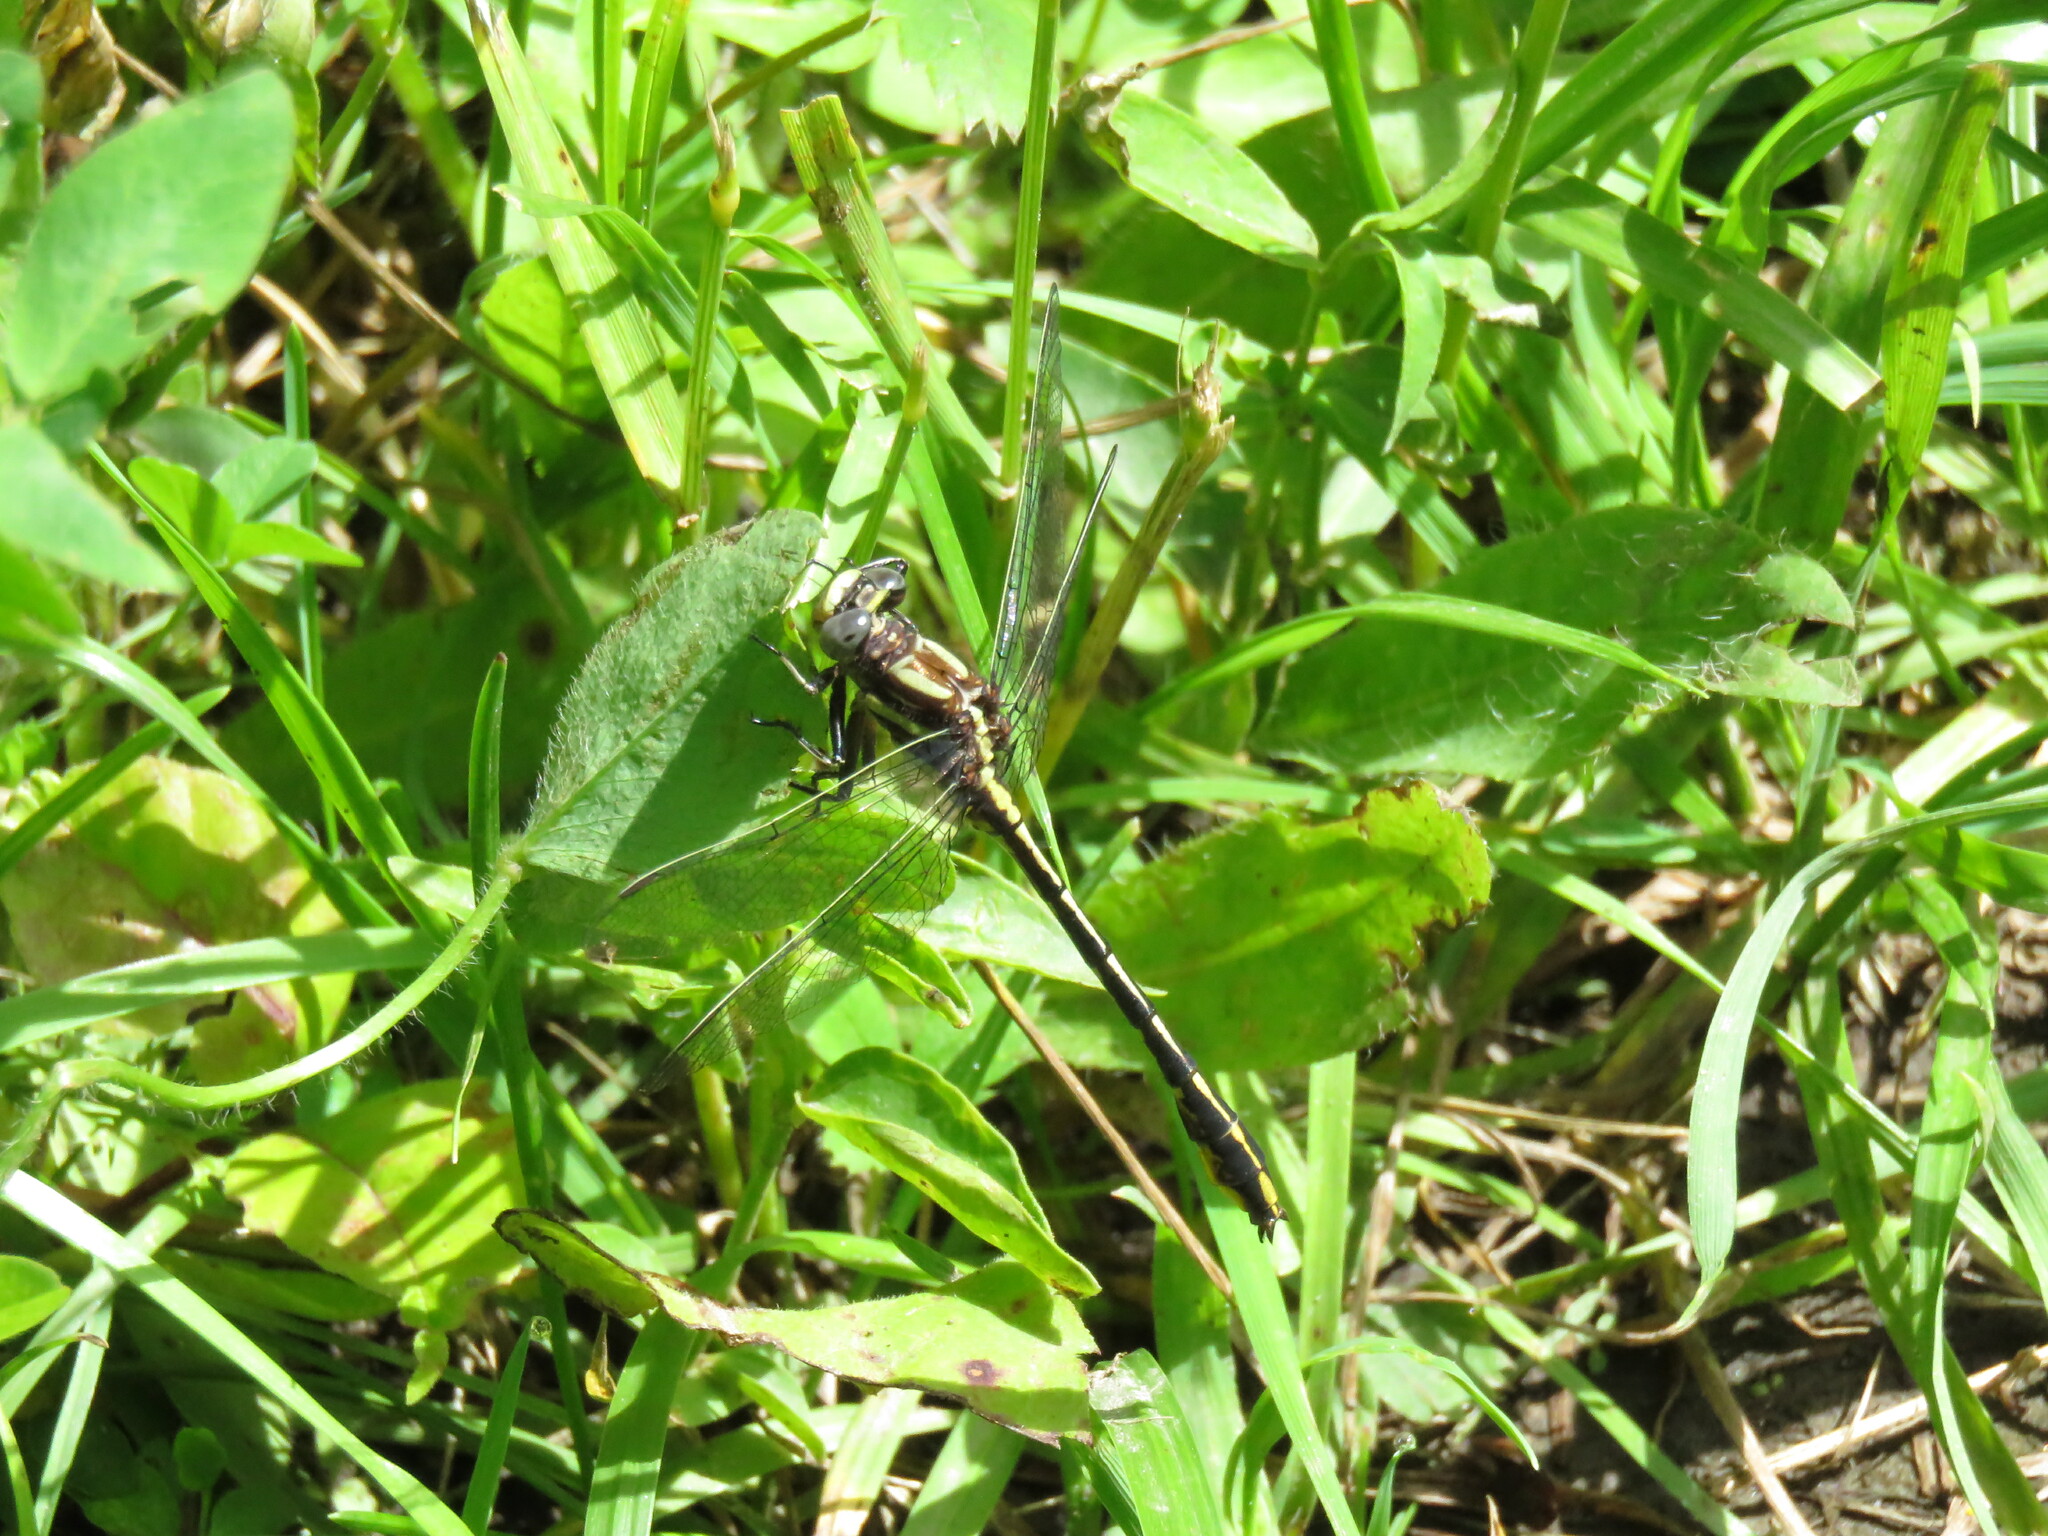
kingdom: Animalia
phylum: Arthropoda
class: Insecta
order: Odonata
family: Gomphidae
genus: Phanogomphus
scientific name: Phanogomphus exilis
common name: Lancet clubtail
